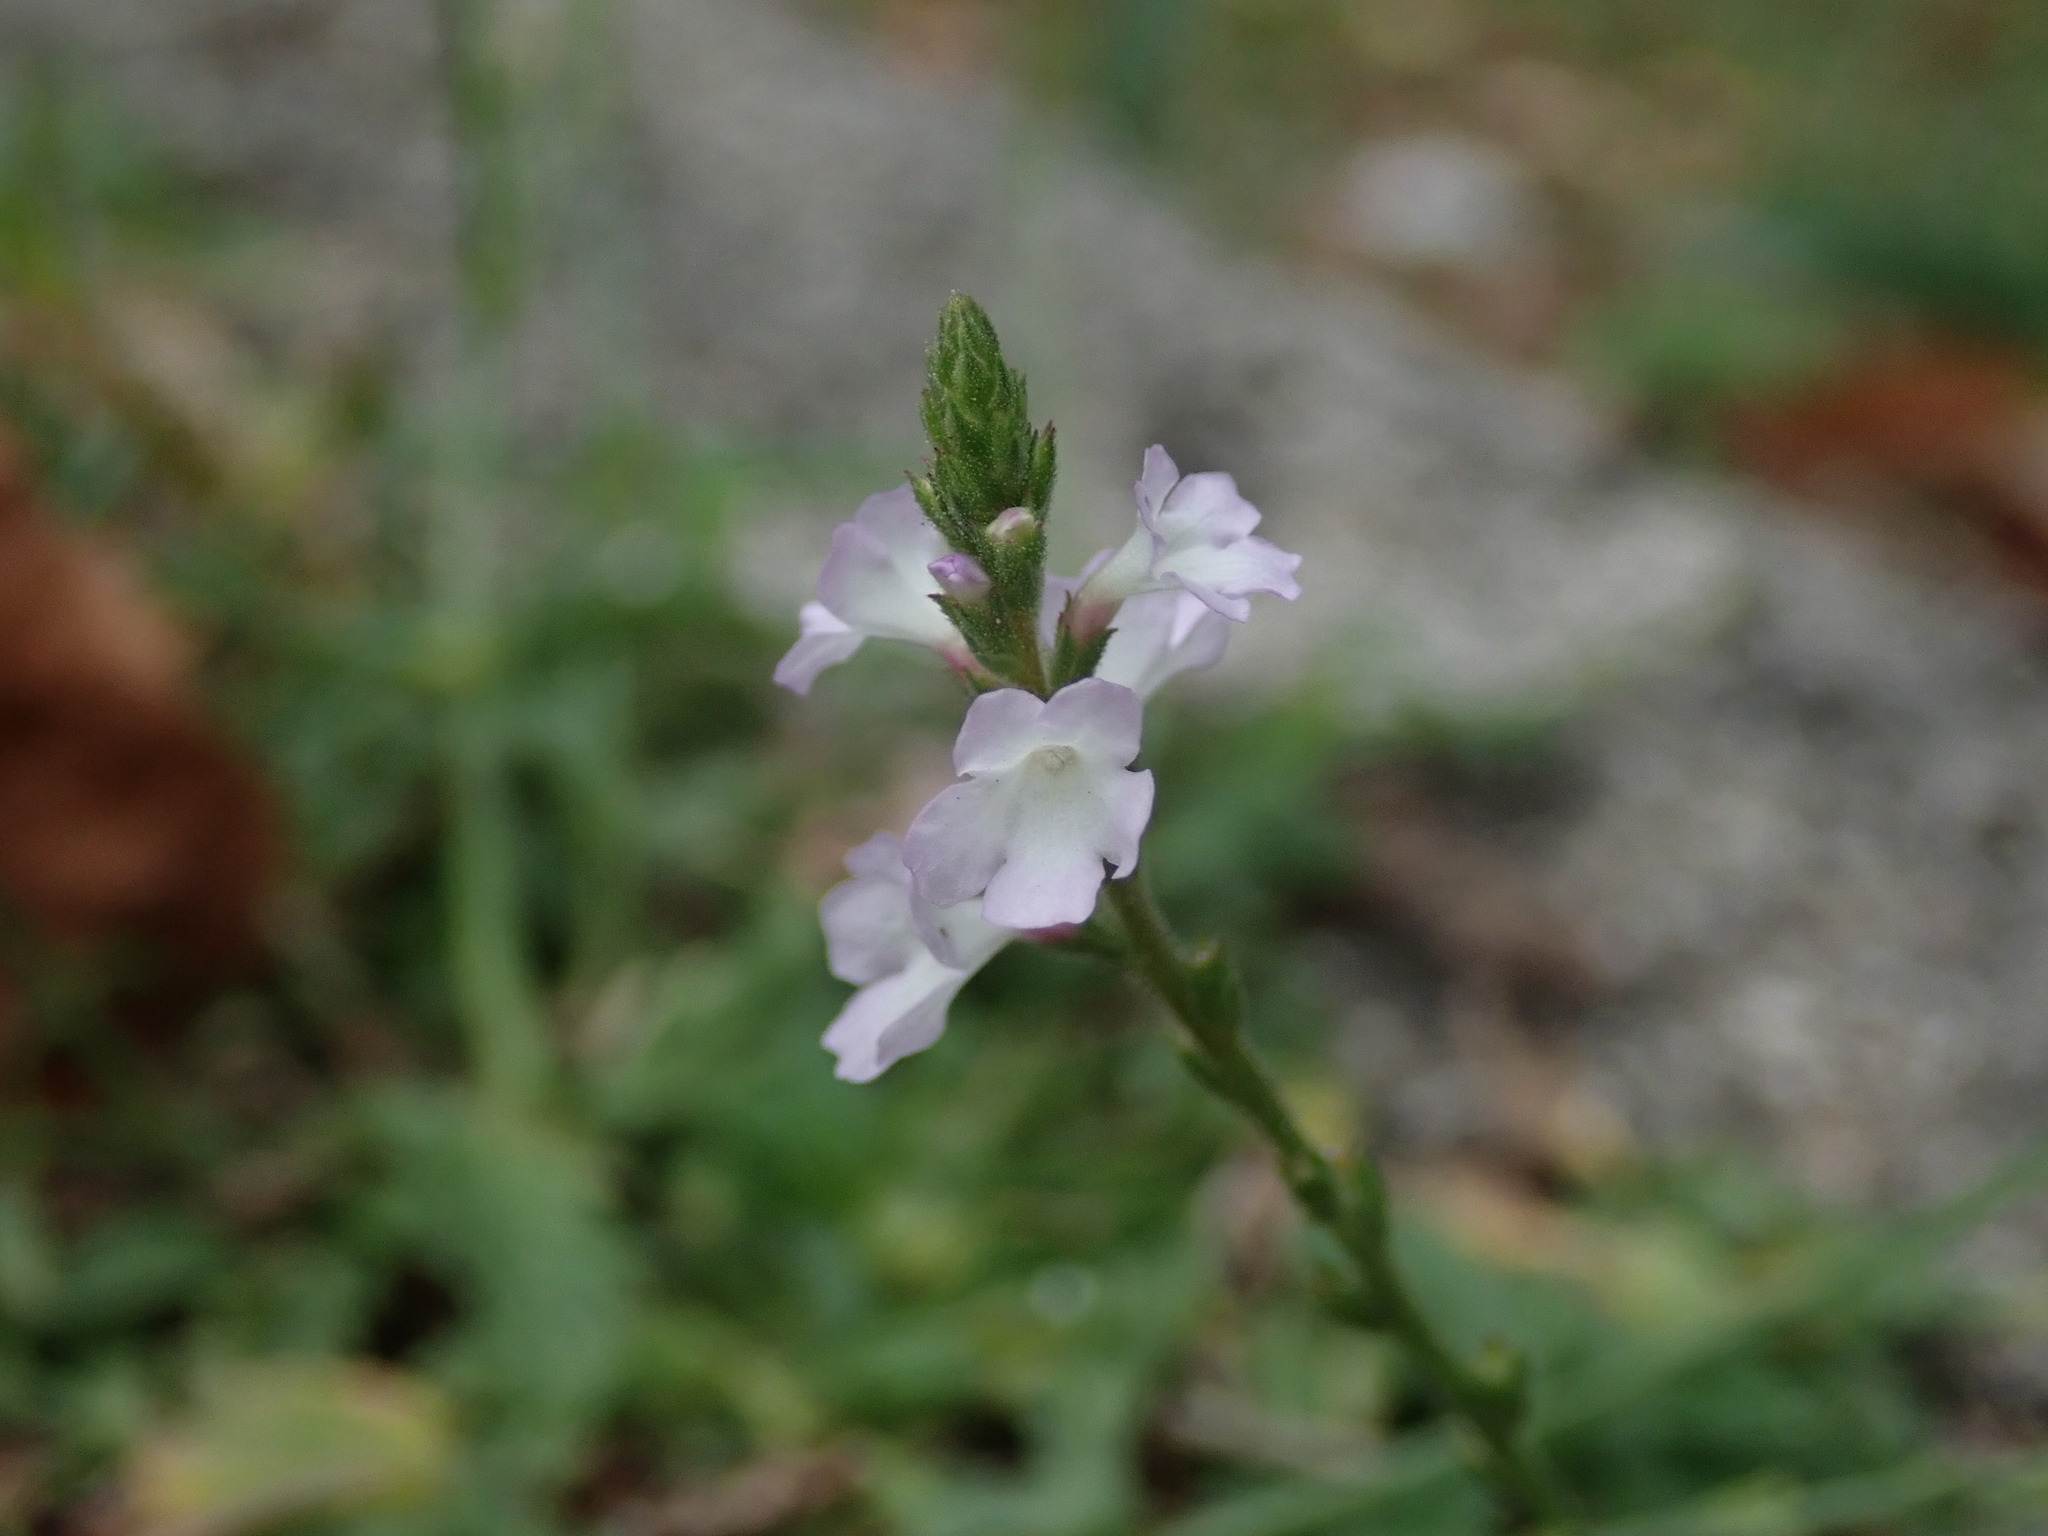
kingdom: Plantae
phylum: Tracheophyta
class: Magnoliopsida
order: Lamiales
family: Verbenaceae
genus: Verbena
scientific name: Verbena officinalis
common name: Vervain
